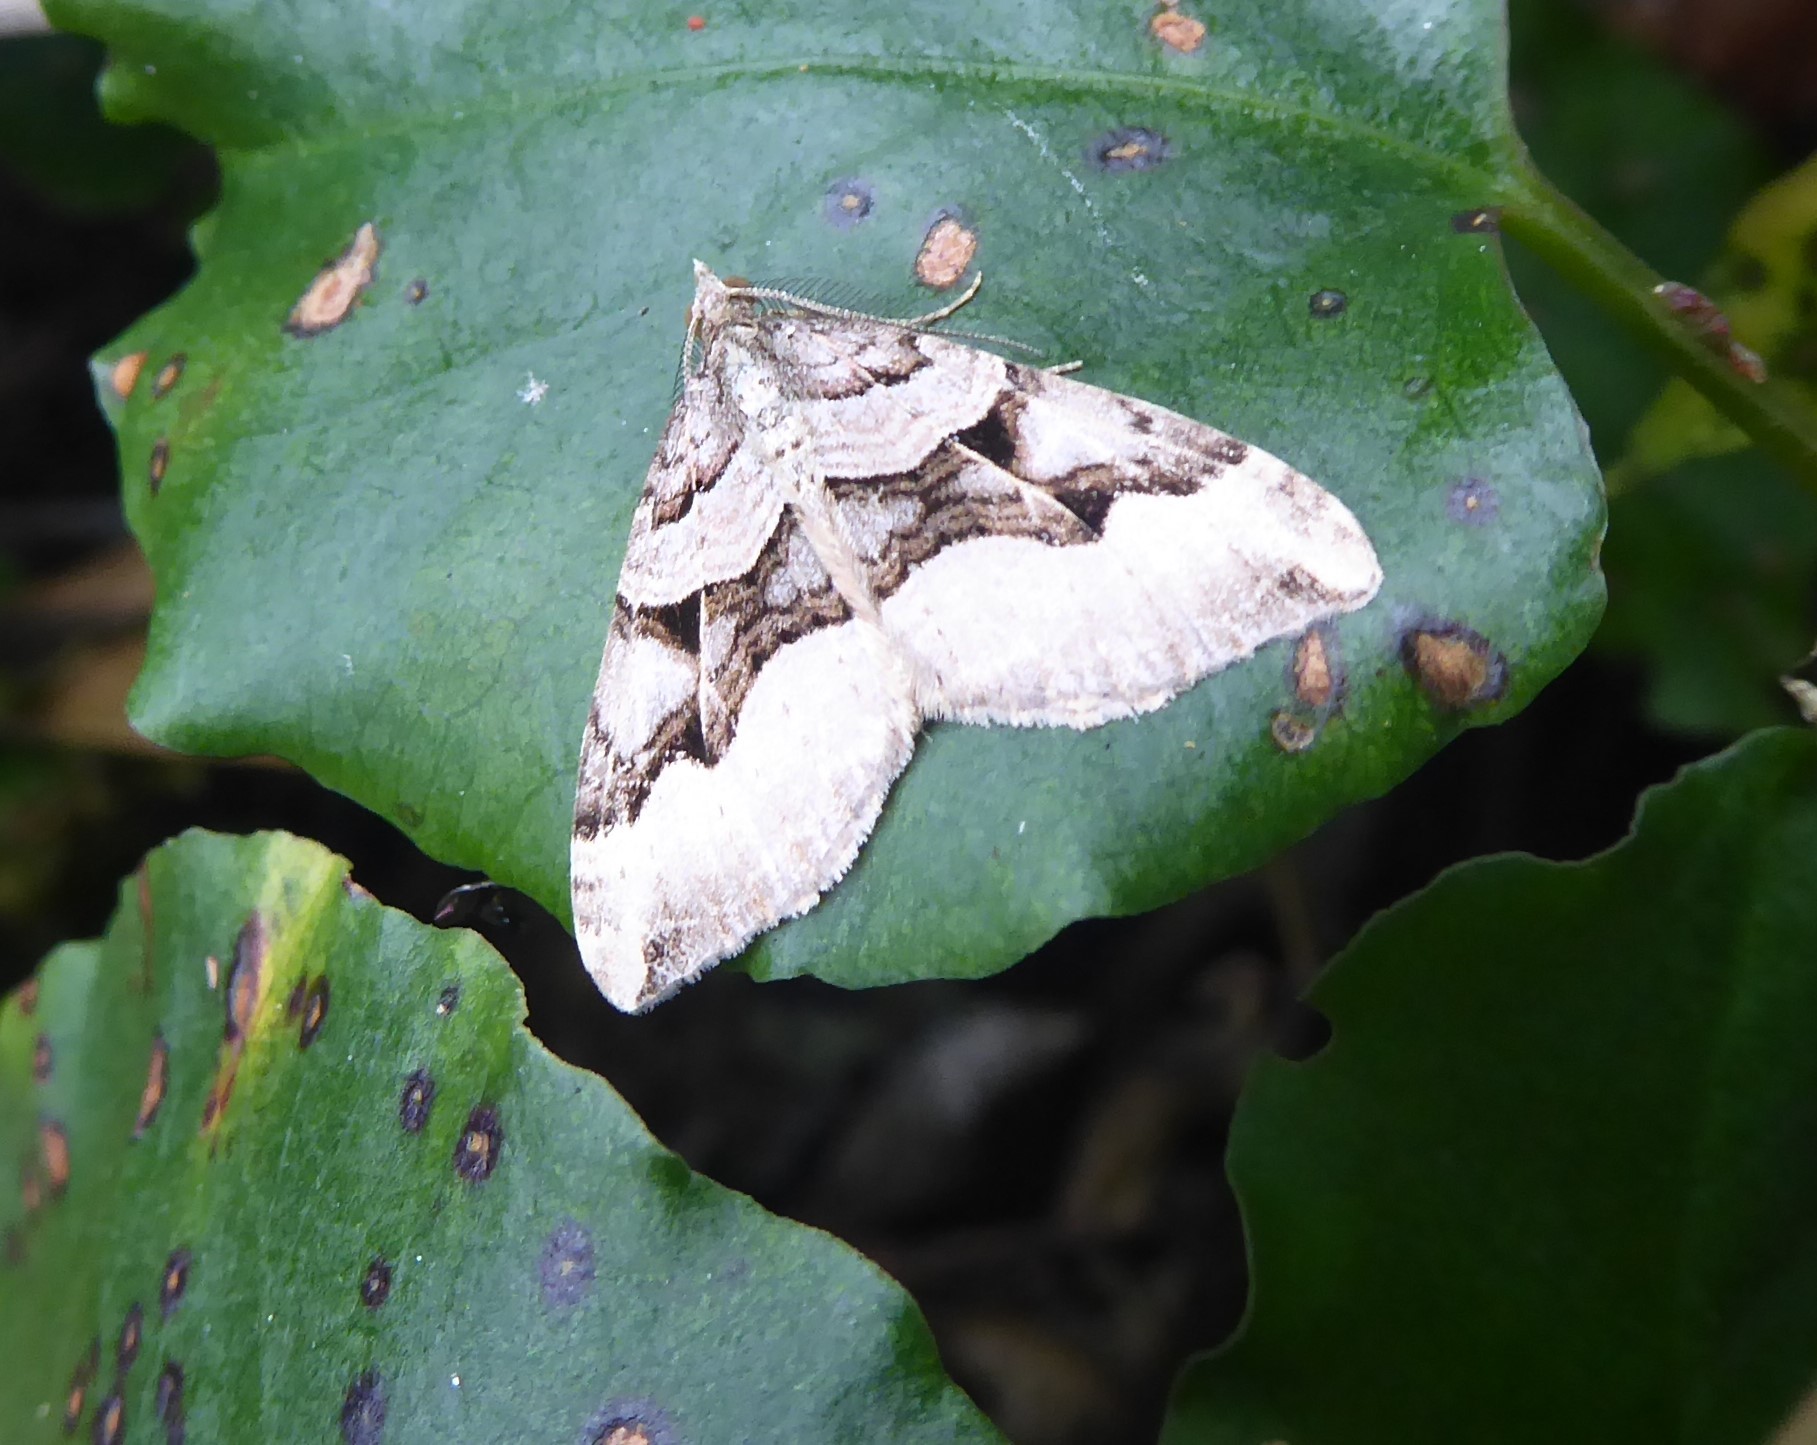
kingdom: Animalia
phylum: Arthropoda
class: Insecta
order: Lepidoptera
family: Geometridae
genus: Xanthorhoe
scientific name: Xanthorhoe semifissata
